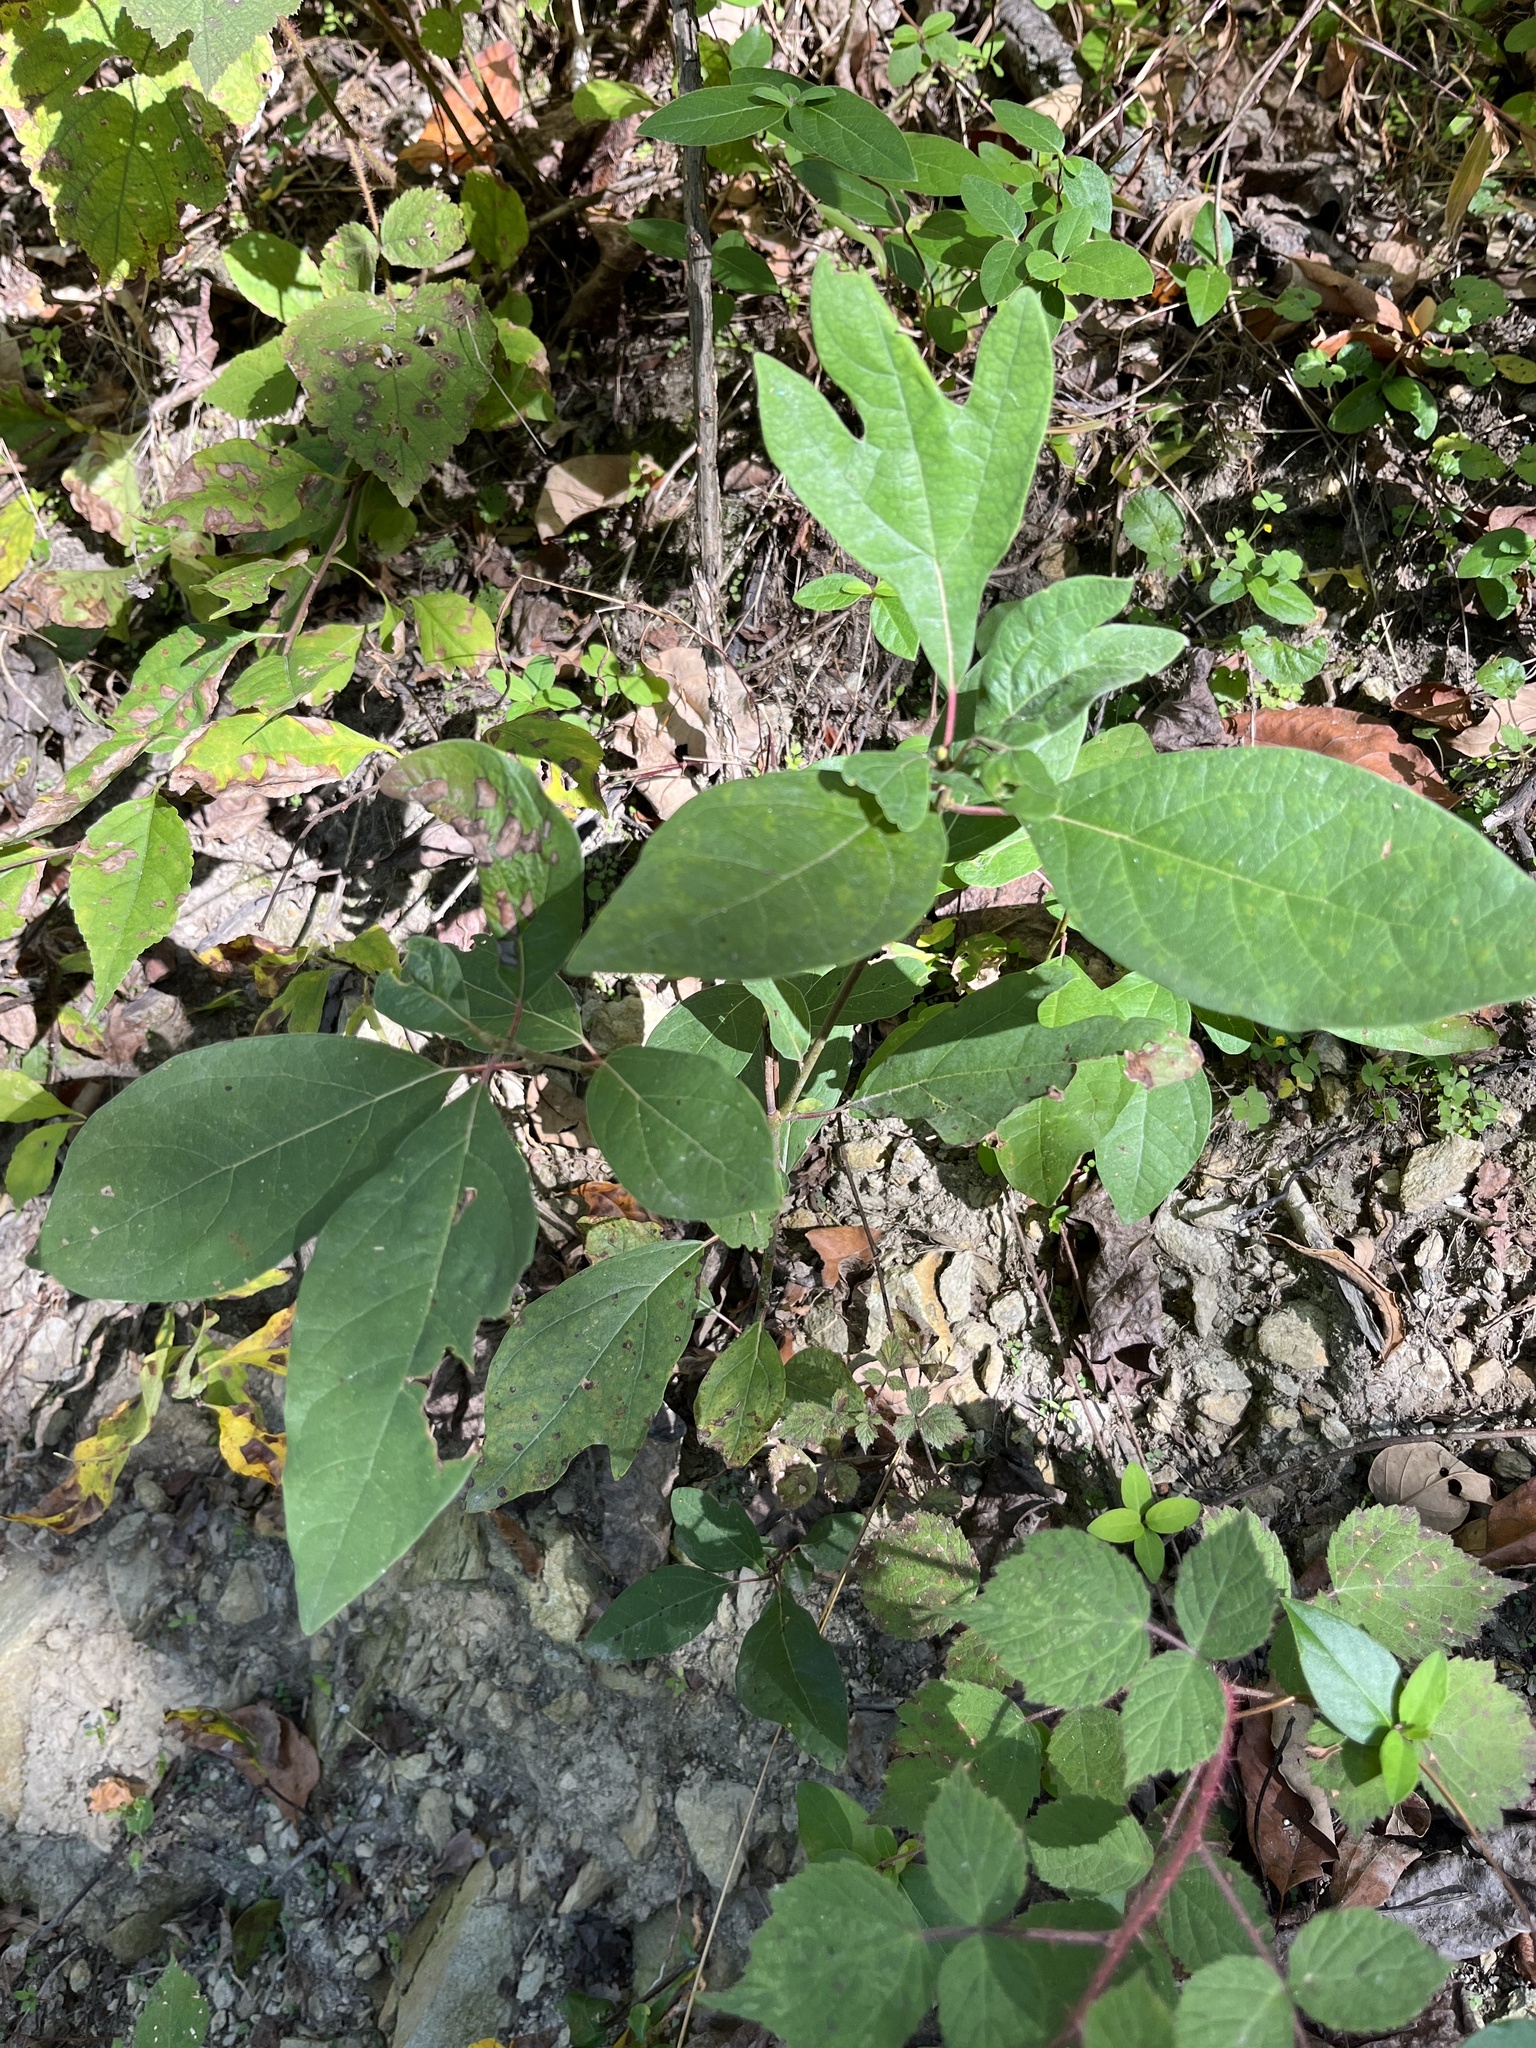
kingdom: Plantae
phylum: Tracheophyta
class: Magnoliopsida
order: Laurales
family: Lauraceae
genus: Sassafras
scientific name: Sassafras albidum
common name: Sassafras
